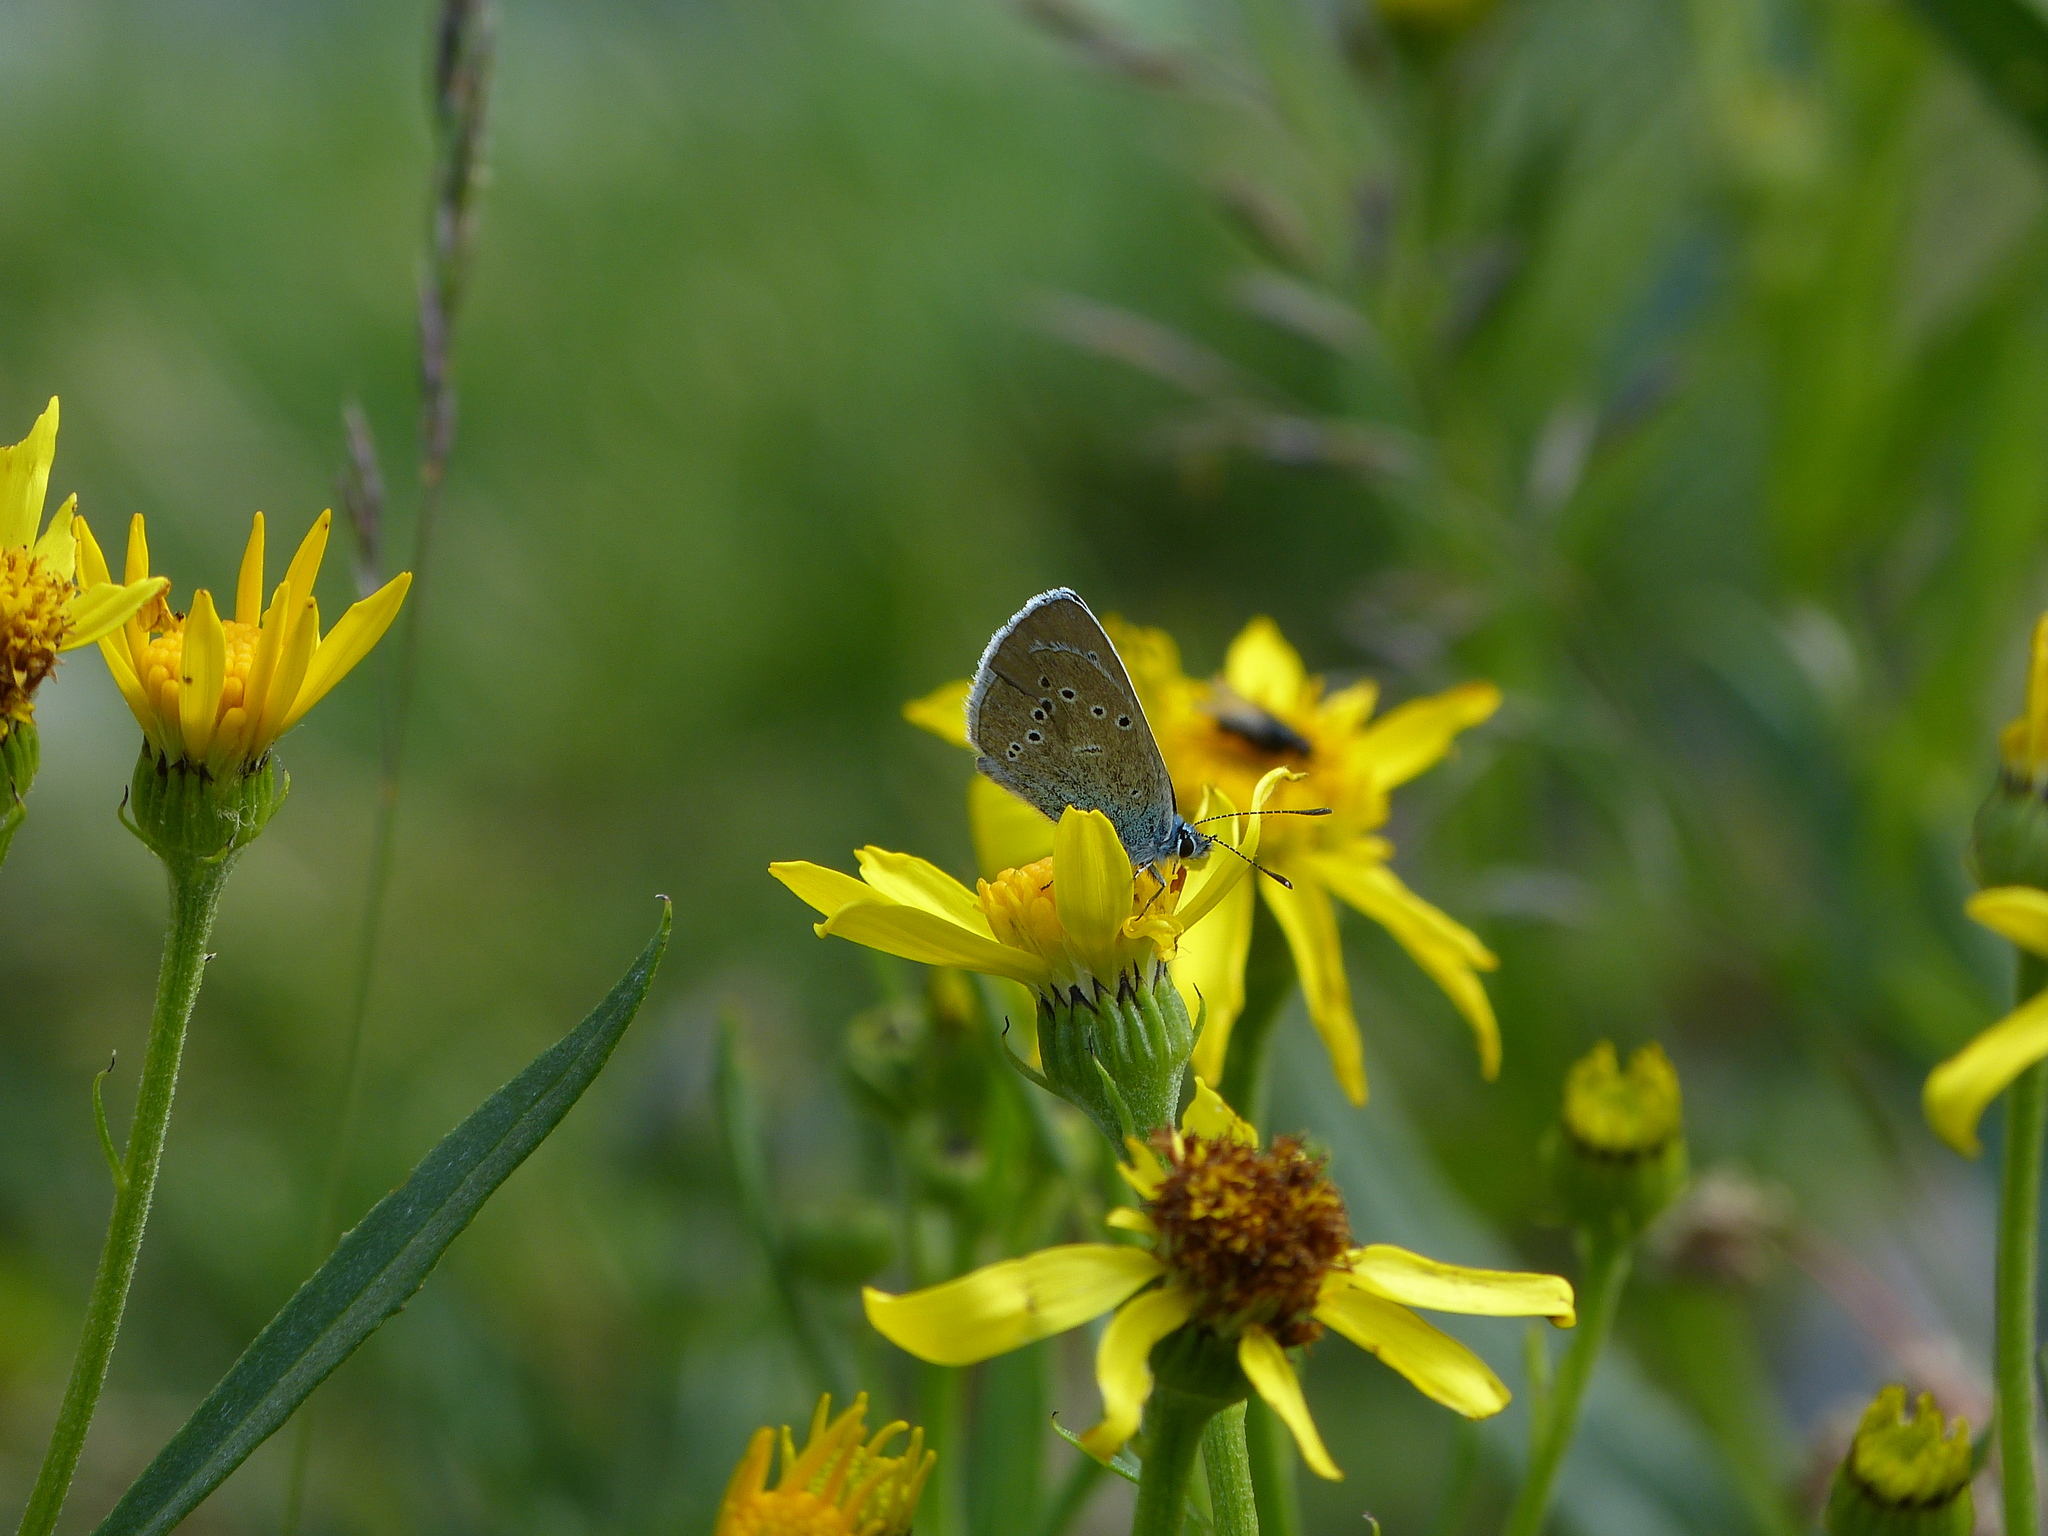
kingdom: Animalia
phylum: Arthropoda
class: Insecta
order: Lepidoptera
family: Lycaenidae
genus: Cyaniris
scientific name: Cyaniris semiargus
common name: Mazarine blue
